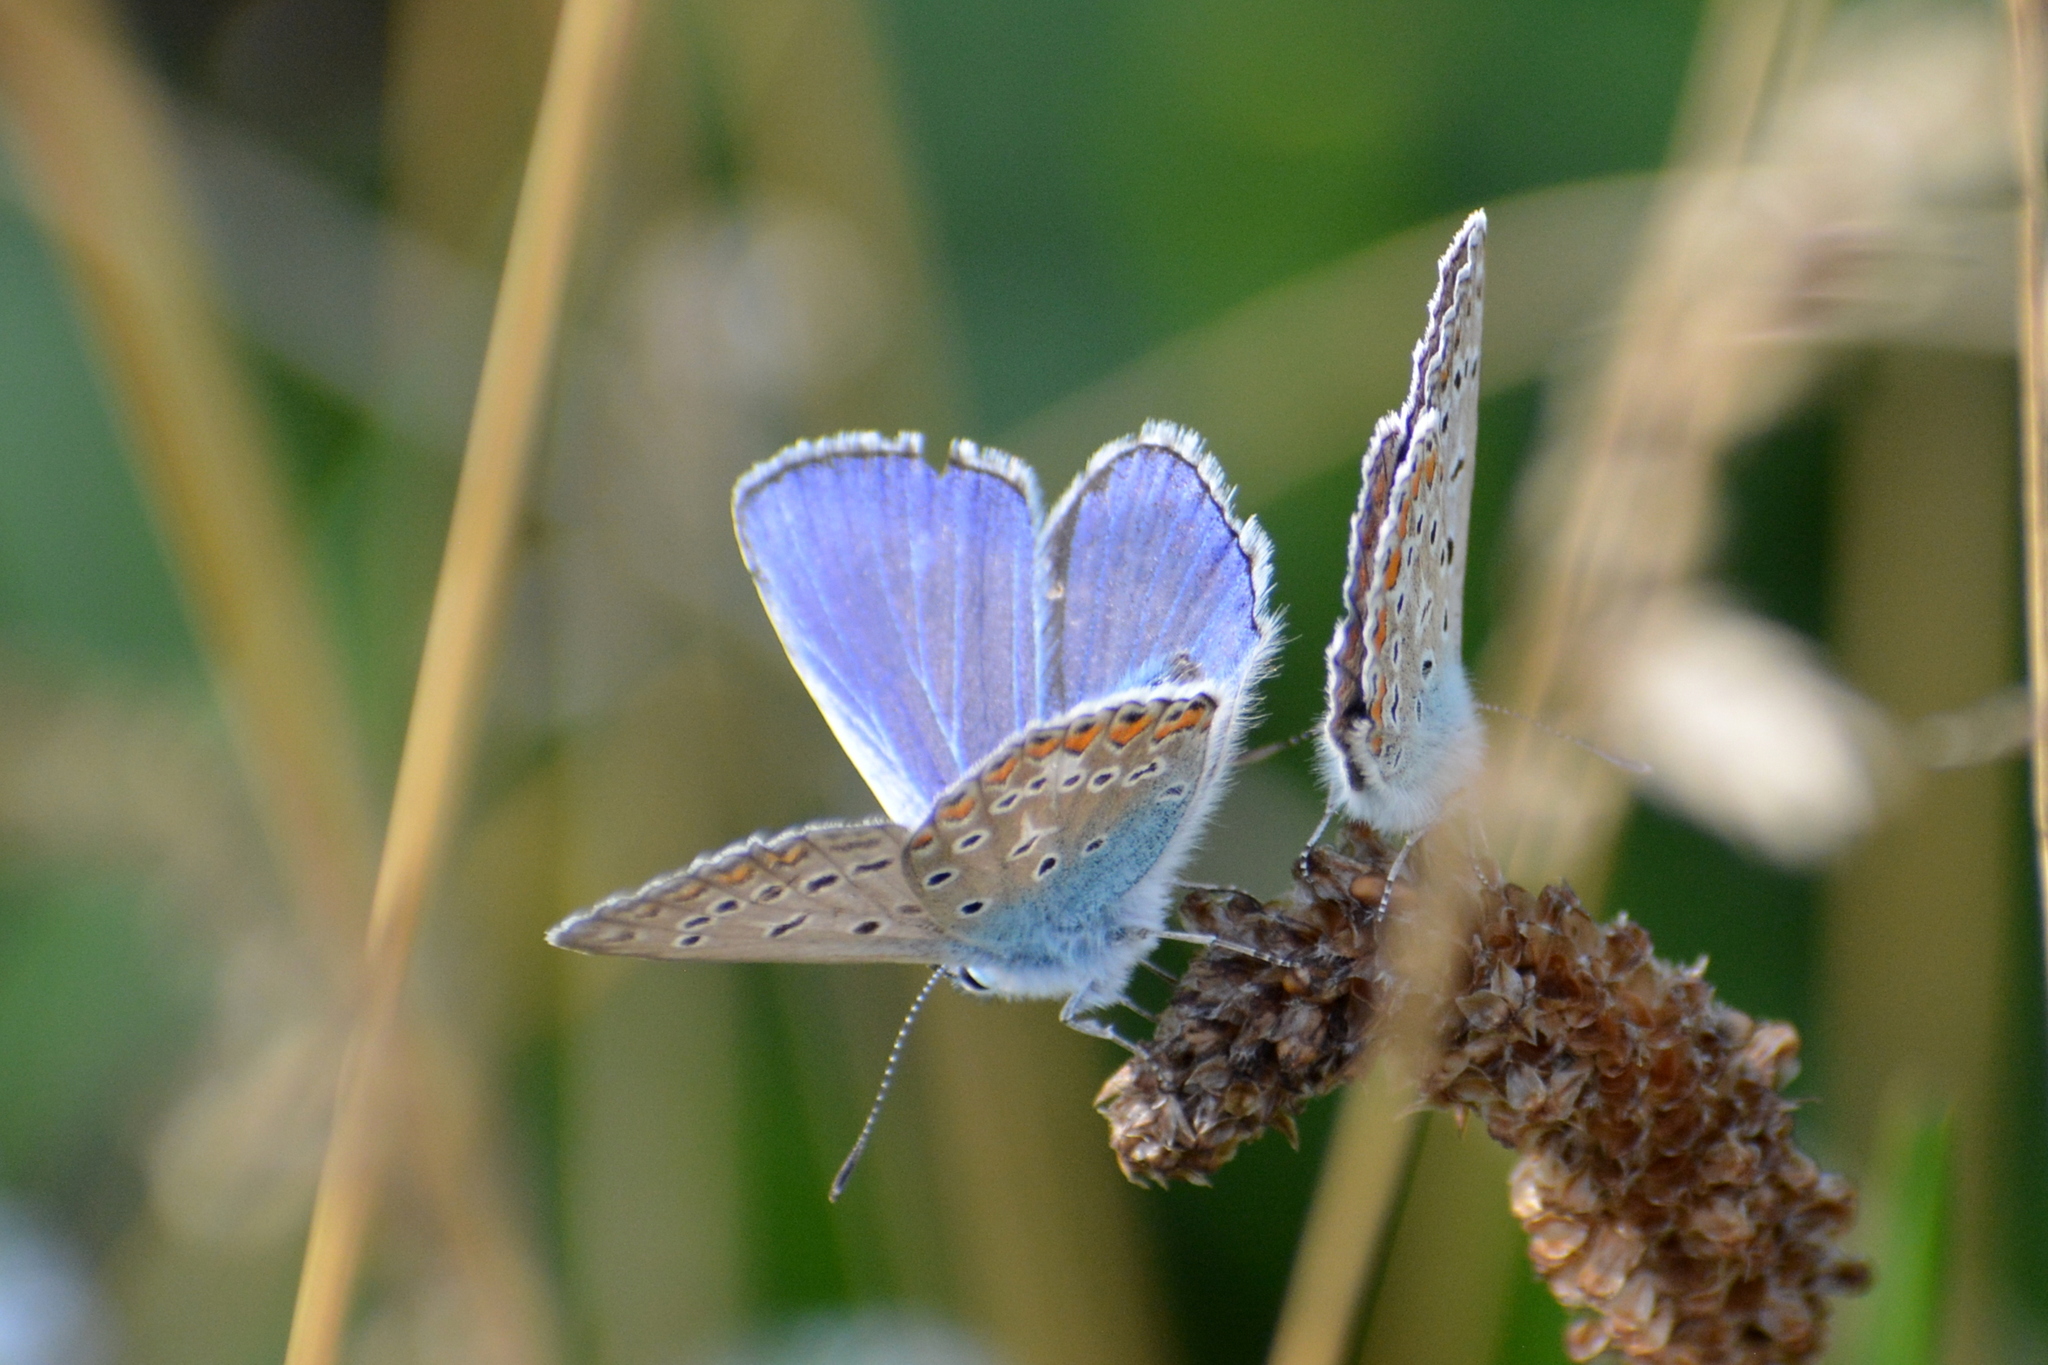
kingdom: Animalia
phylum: Arthropoda
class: Insecta
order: Lepidoptera
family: Lycaenidae
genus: Polyommatus
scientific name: Polyommatus icarus
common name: Common blue
